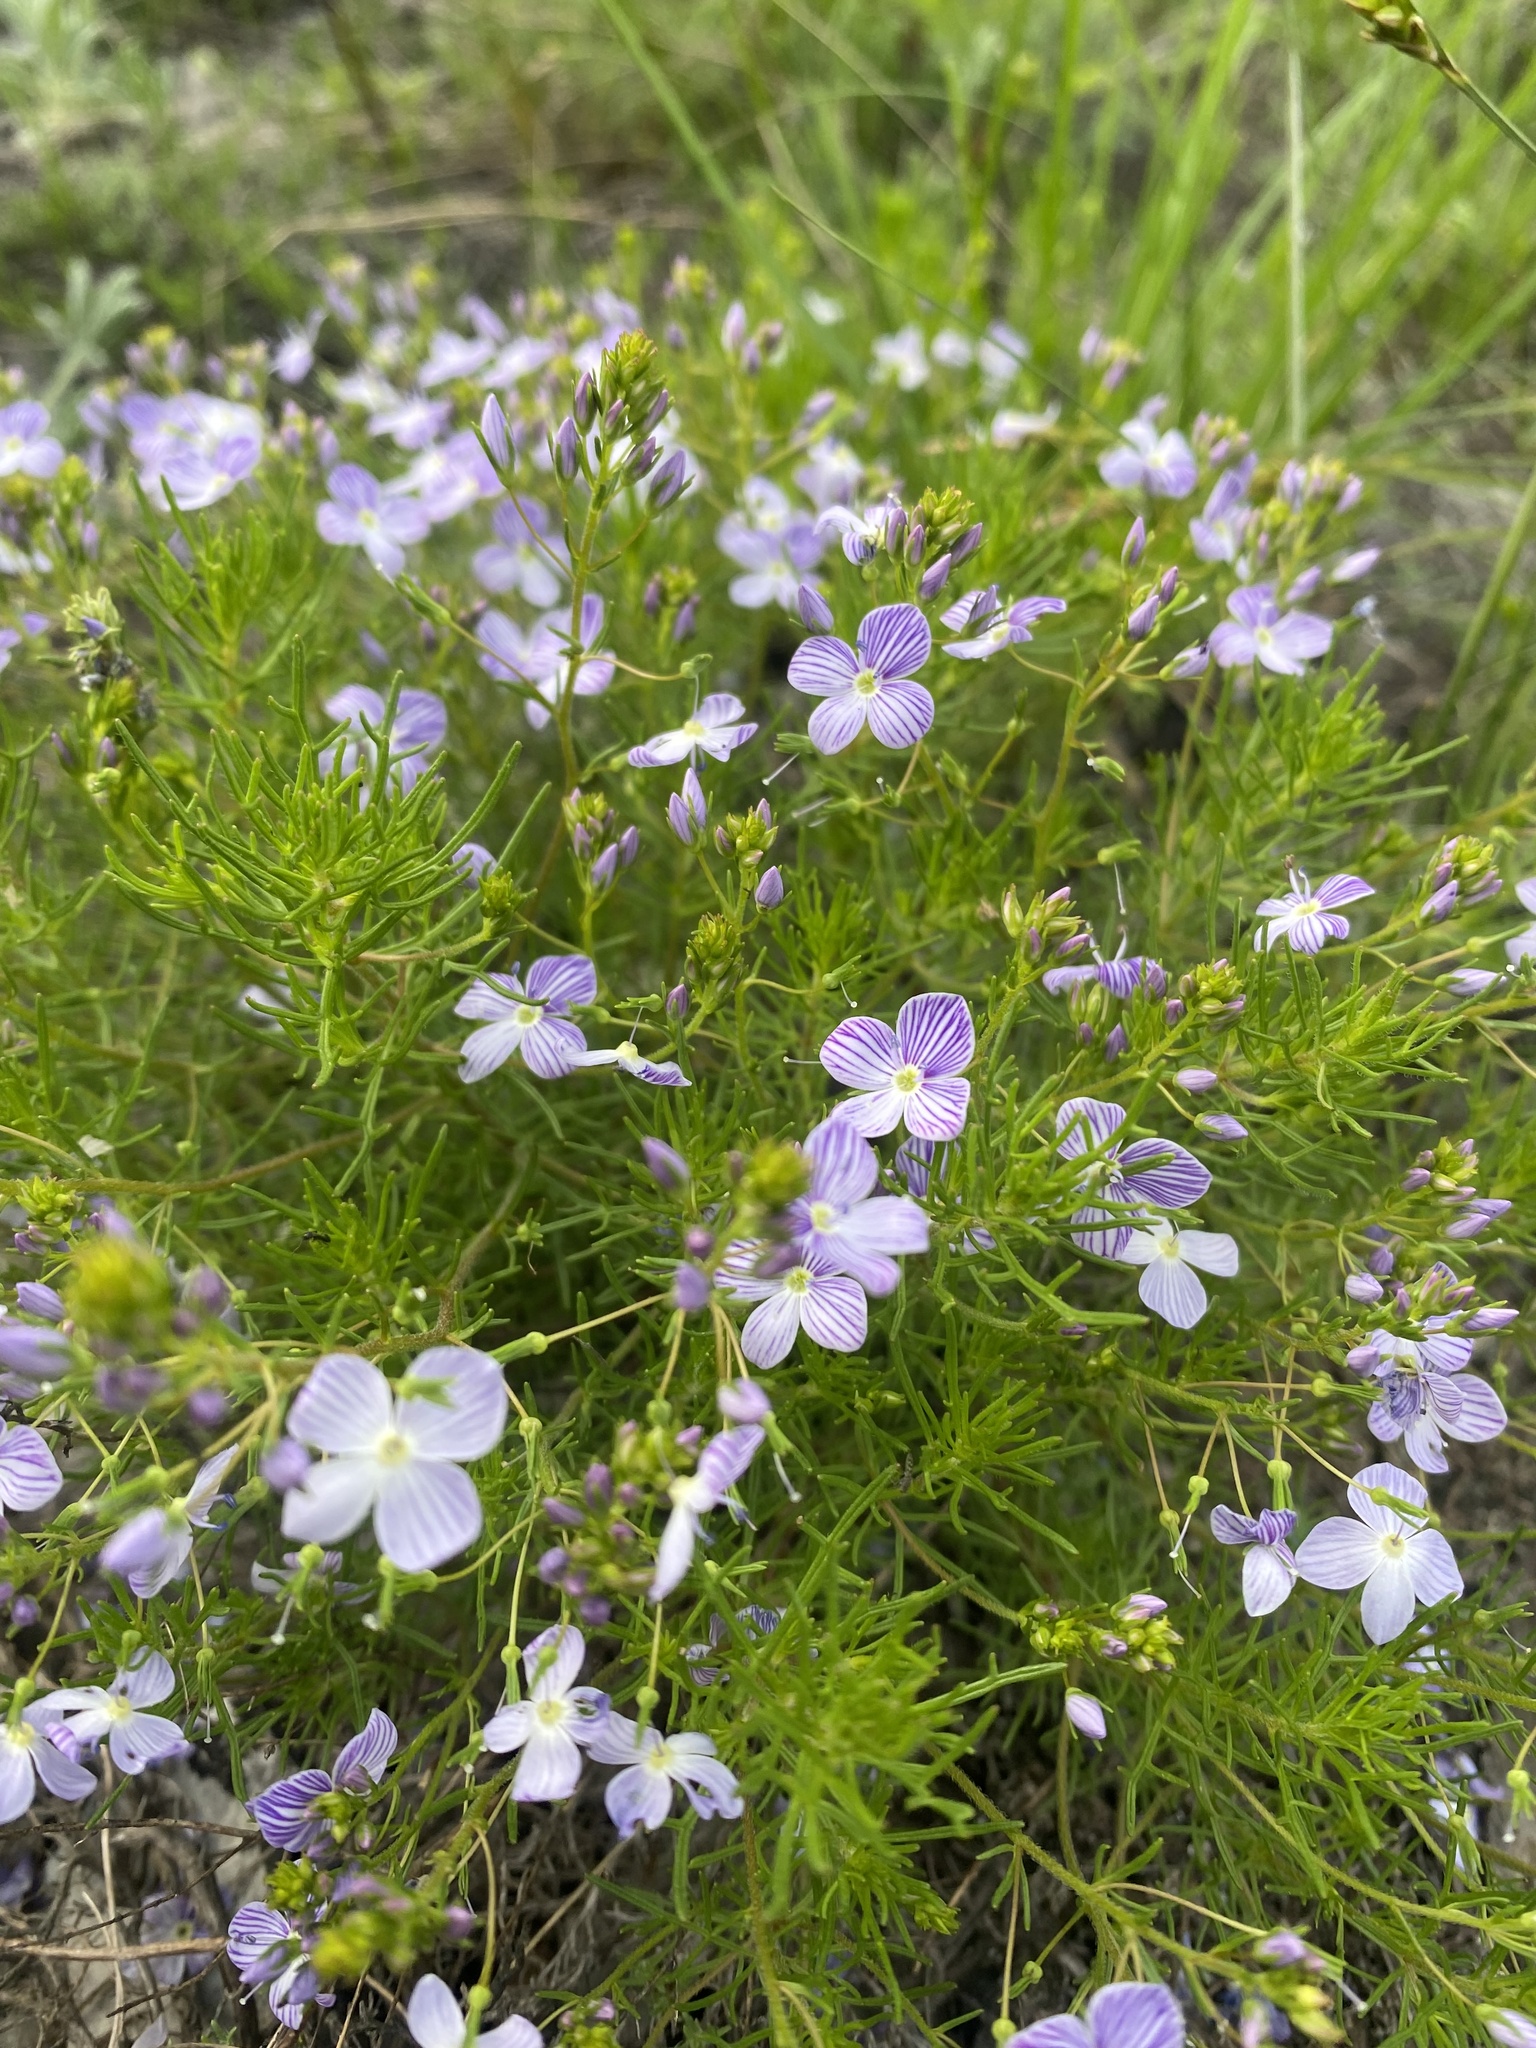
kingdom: Plantae
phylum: Tracheophyta
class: Magnoliopsida
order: Lamiales
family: Plantaginaceae
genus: Veronica
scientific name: Veronica filifolia
